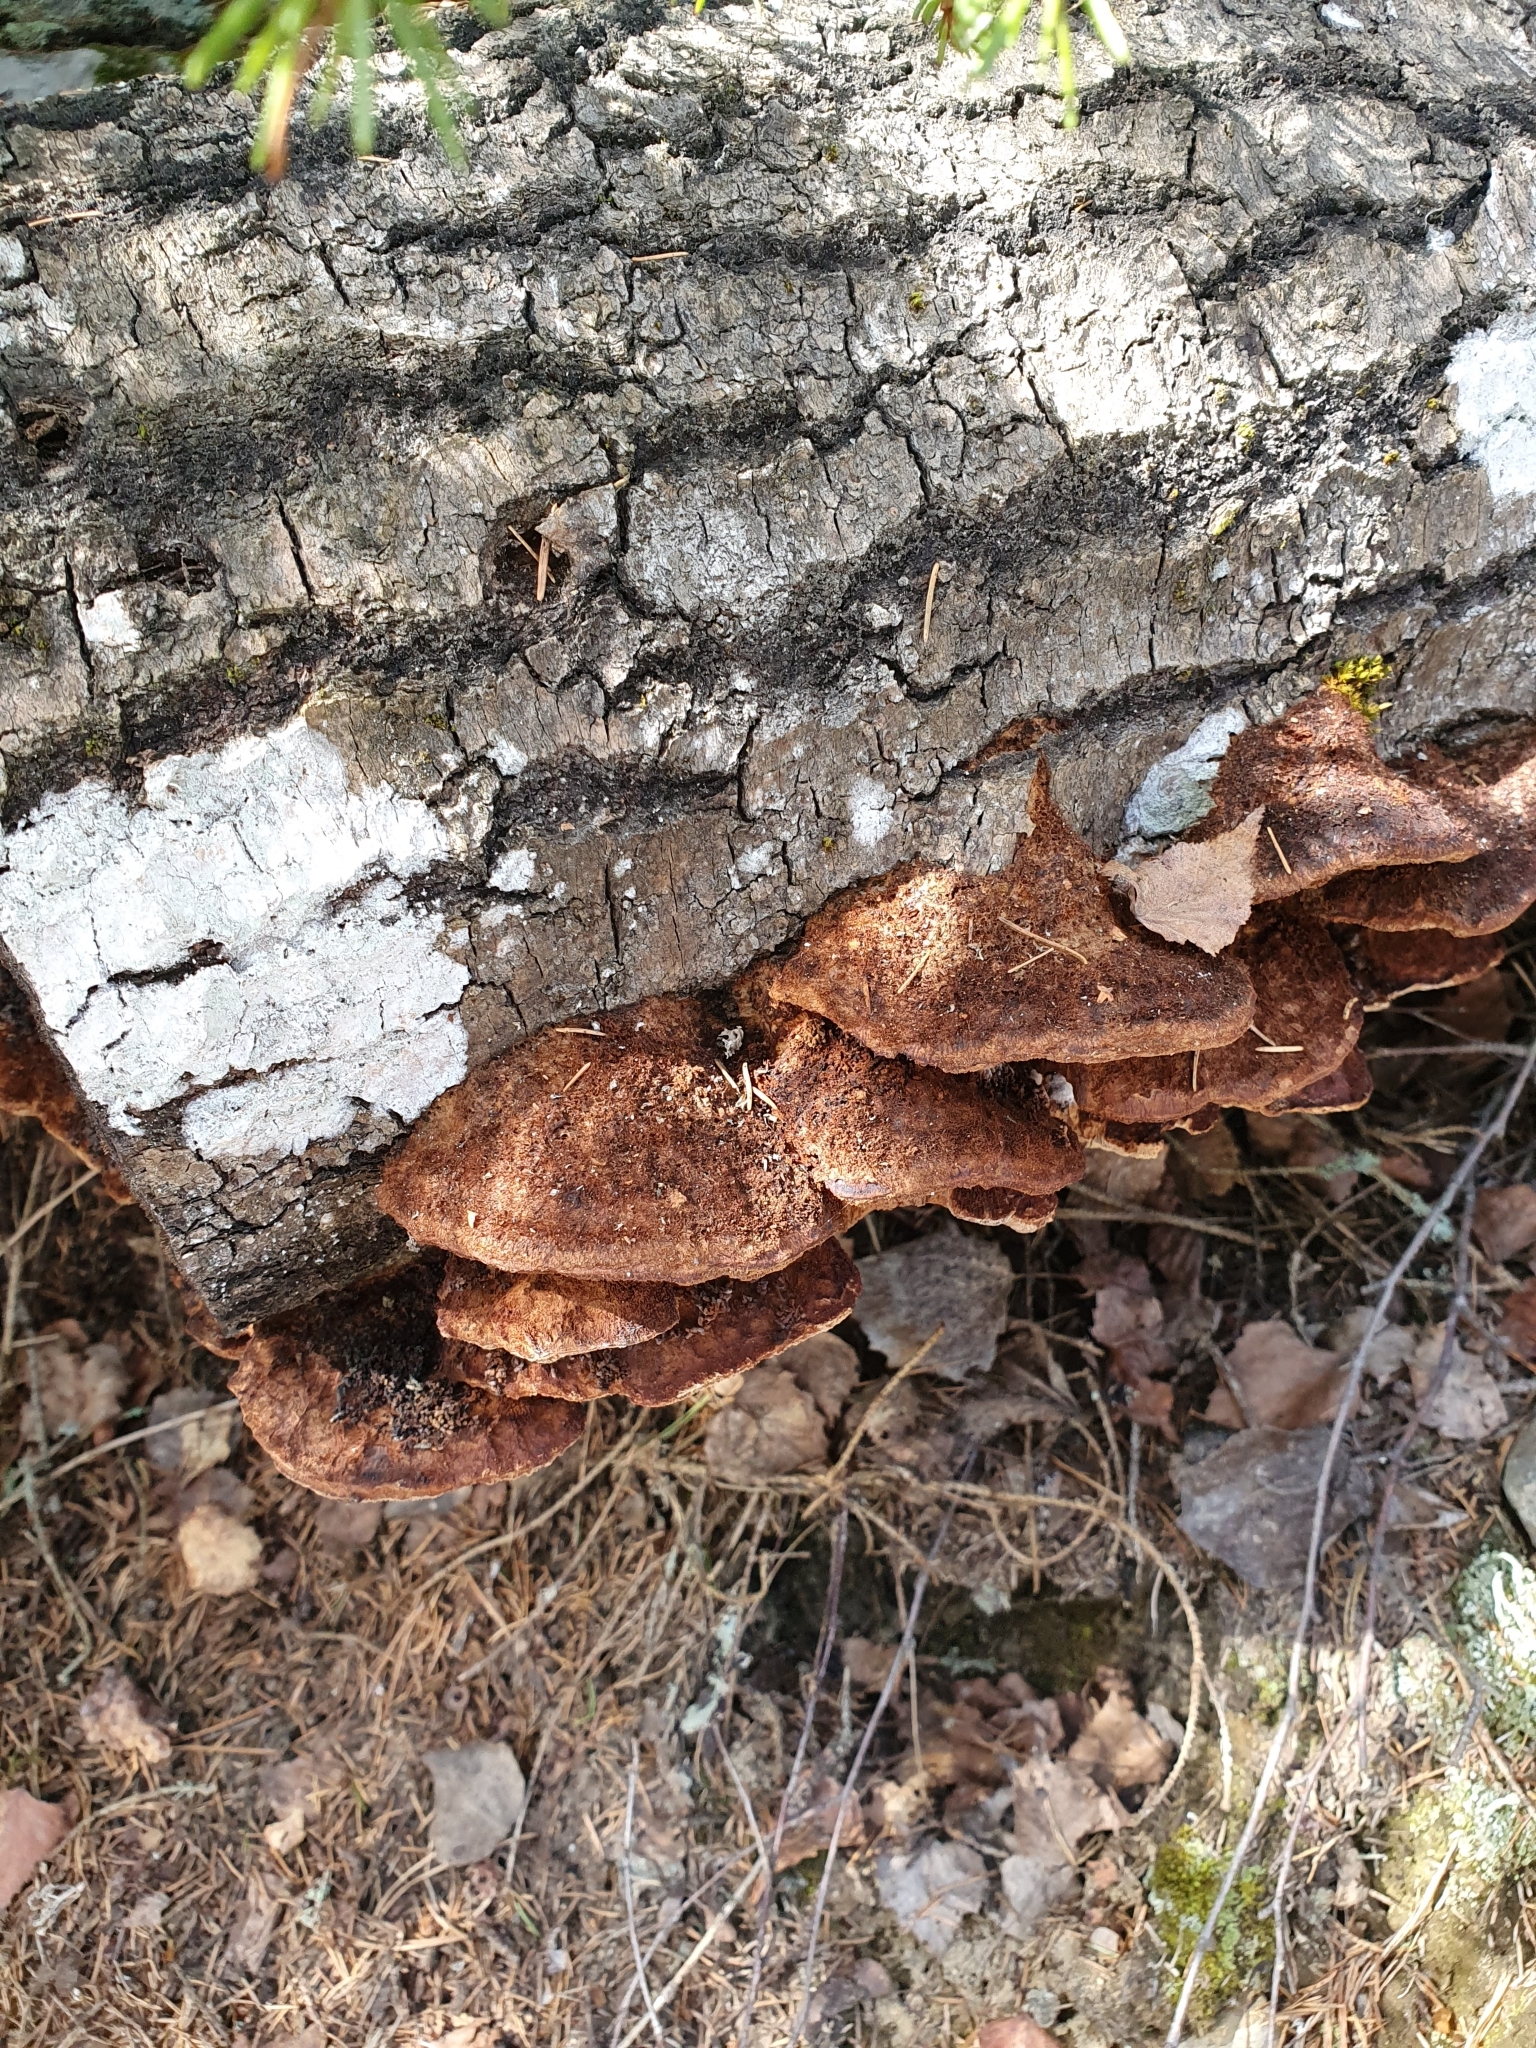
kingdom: Fungi
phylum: Basidiomycota
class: Agaricomycetes
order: Hymenochaetales
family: Hymenochaetaceae
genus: Xanthoporia
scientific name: Xanthoporia radiata
